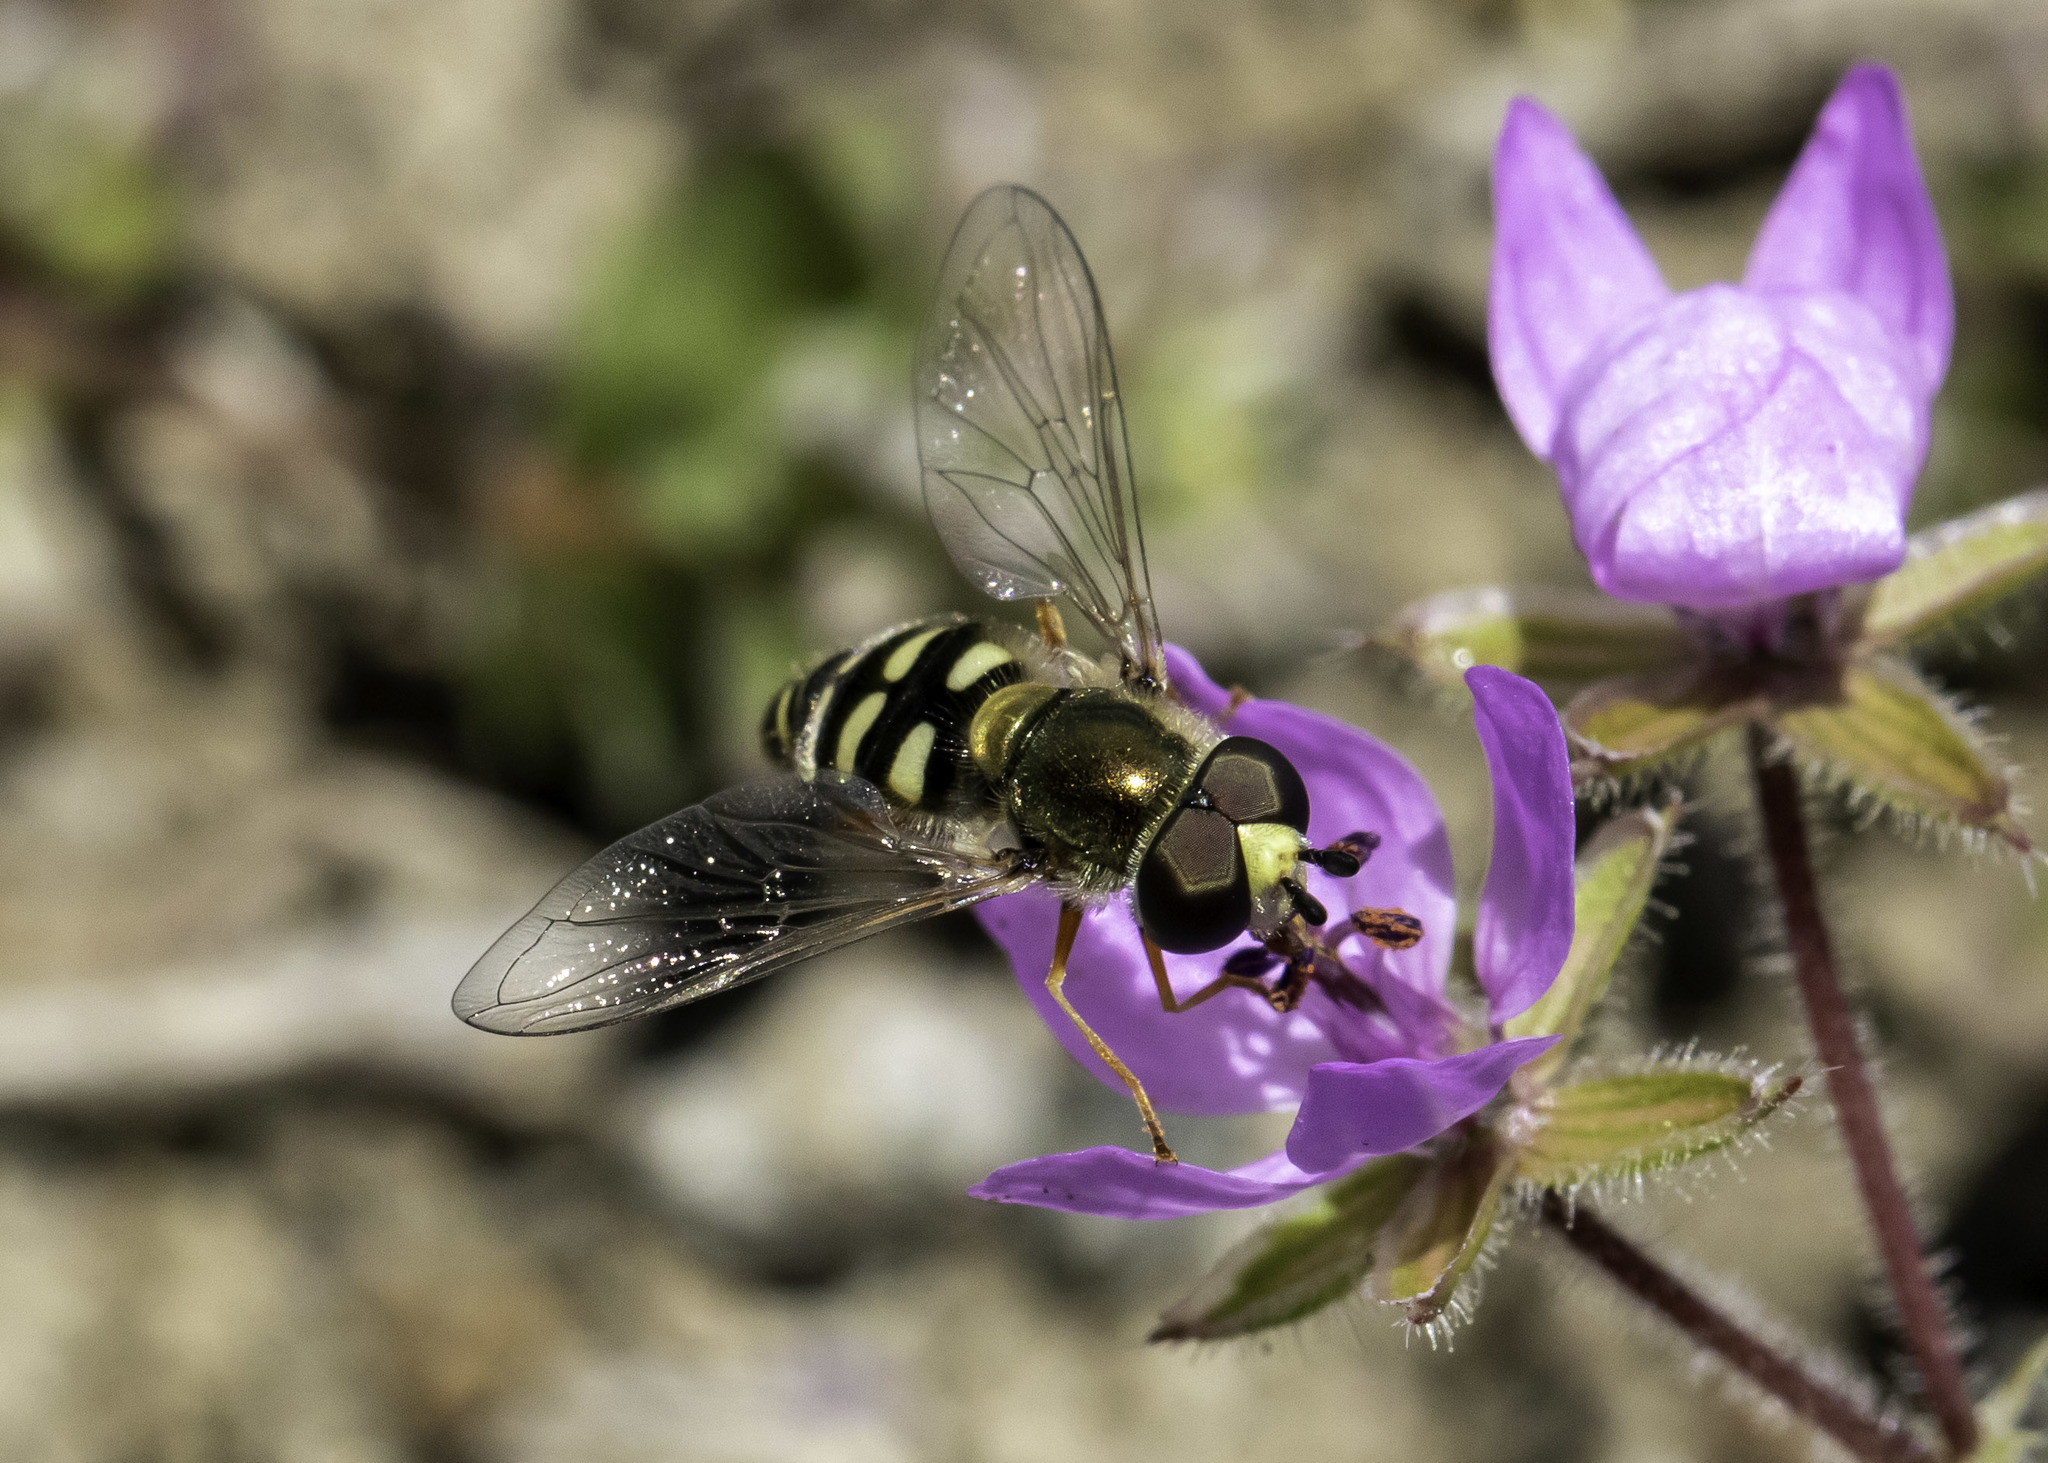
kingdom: Animalia
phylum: Arthropoda
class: Insecta
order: Diptera
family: Syrphidae
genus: Eupeodes
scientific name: Eupeodes volucris
